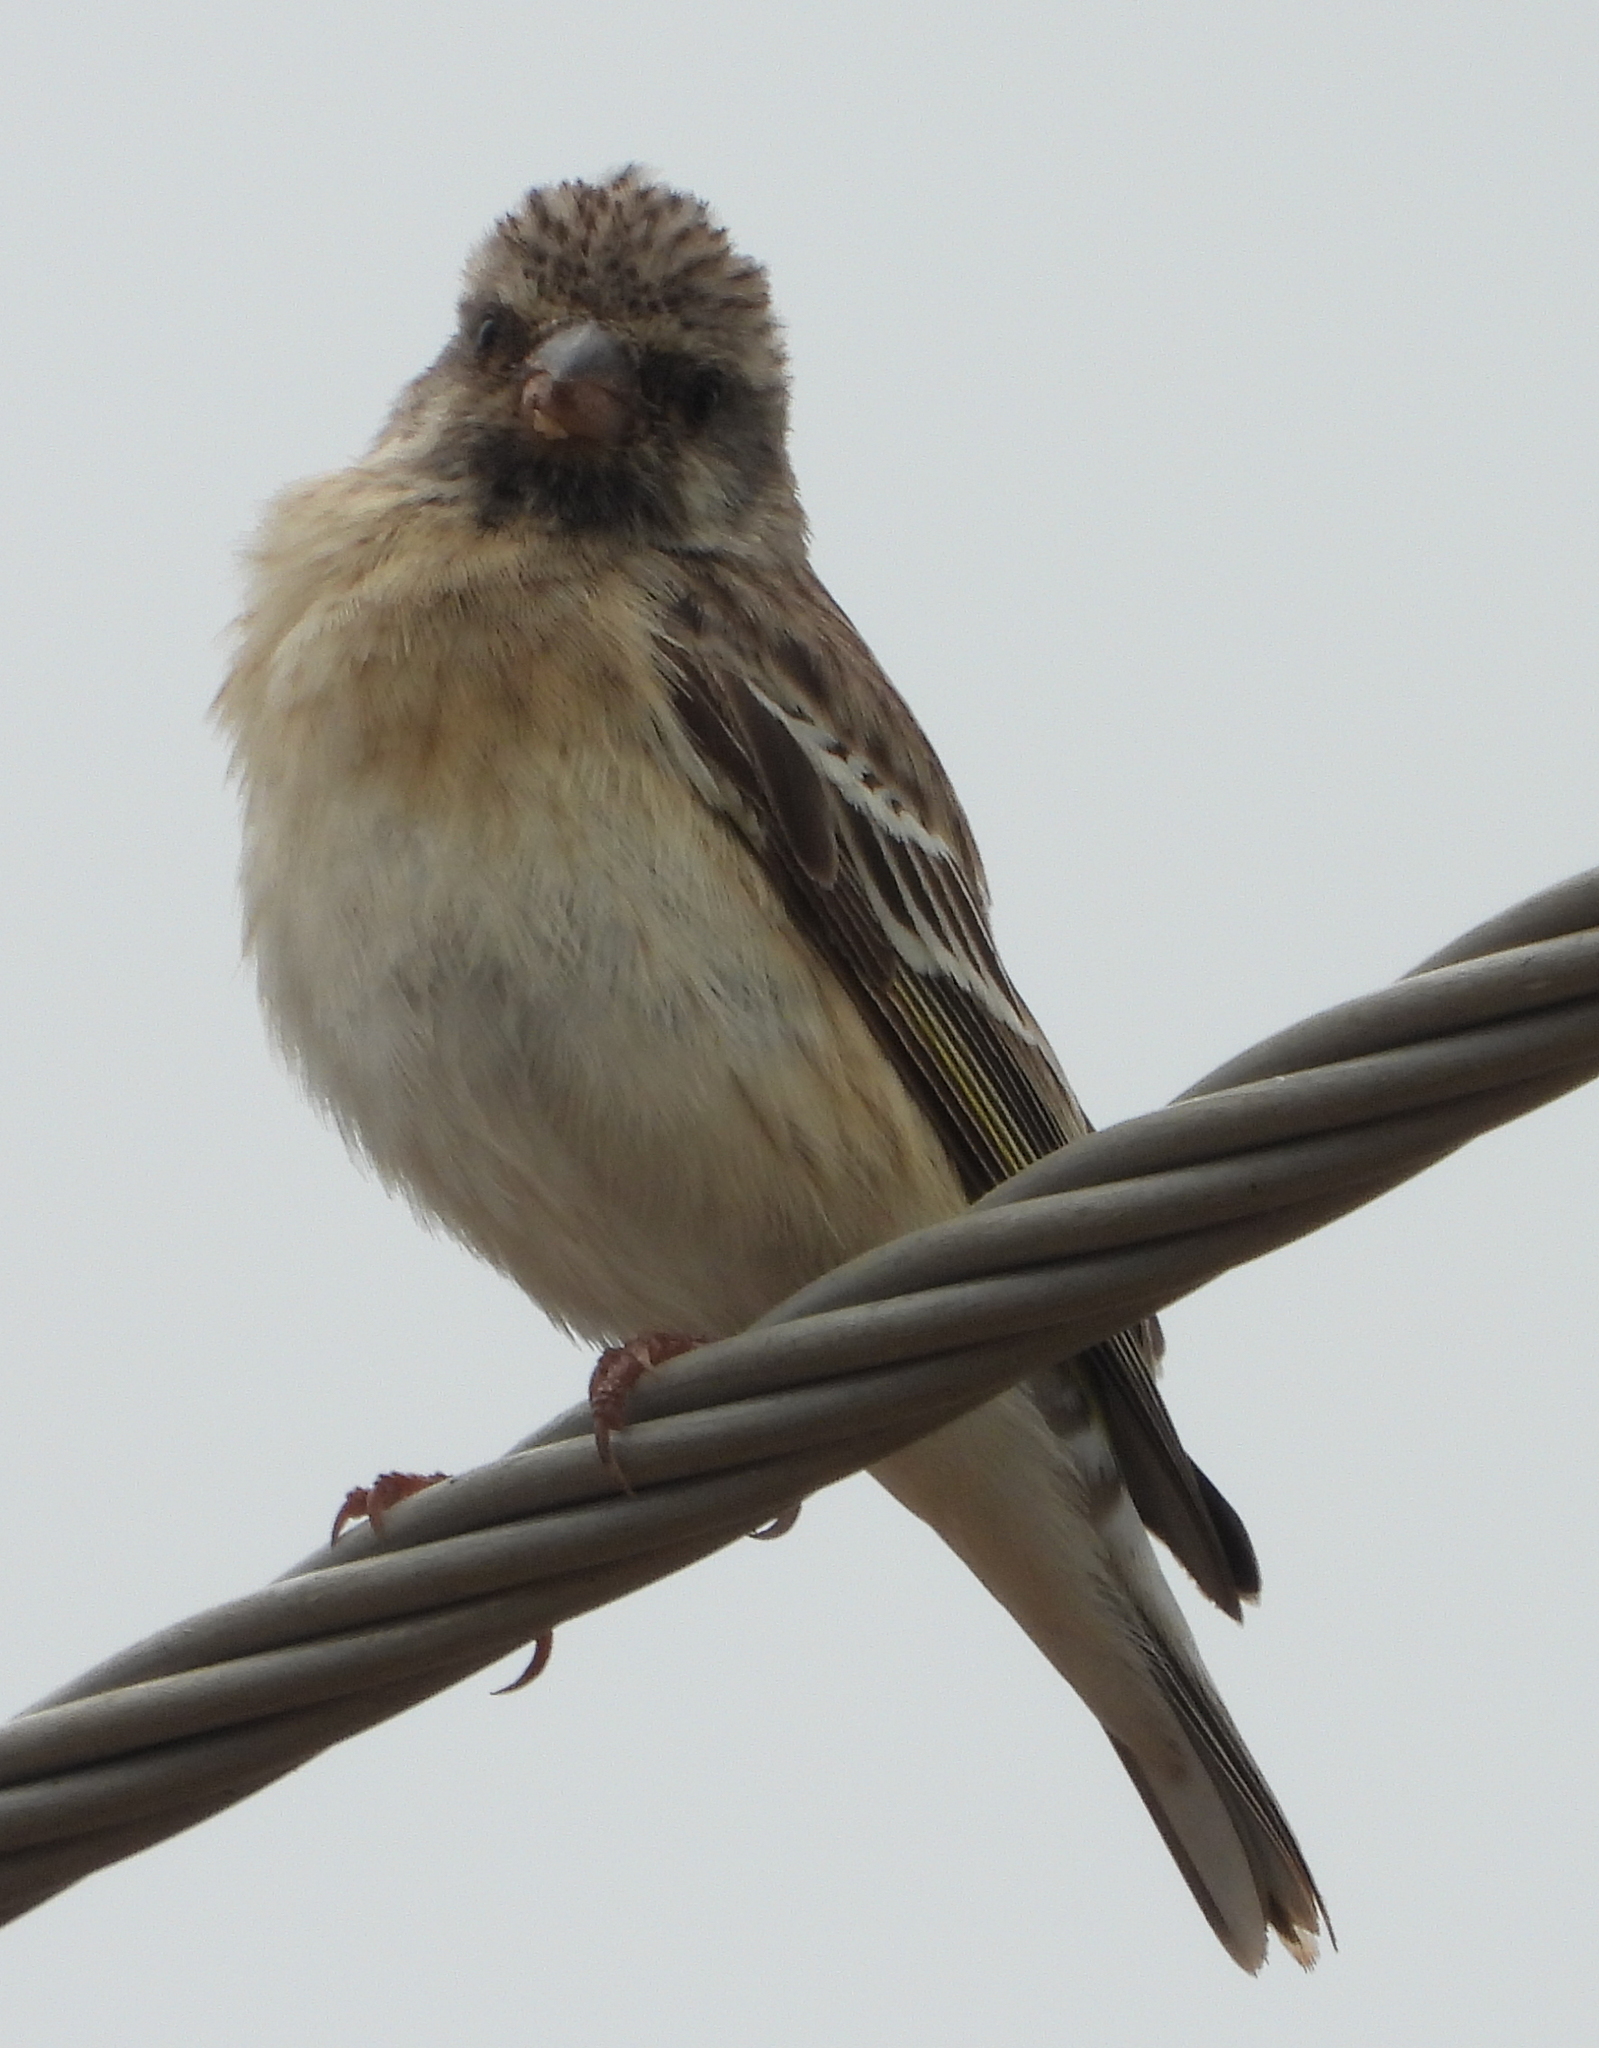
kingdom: Animalia
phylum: Chordata
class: Aves
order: Passeriformes
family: Fringillidae
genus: Crithagra
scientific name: Crithagra atrogularis
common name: Black-throated canary
